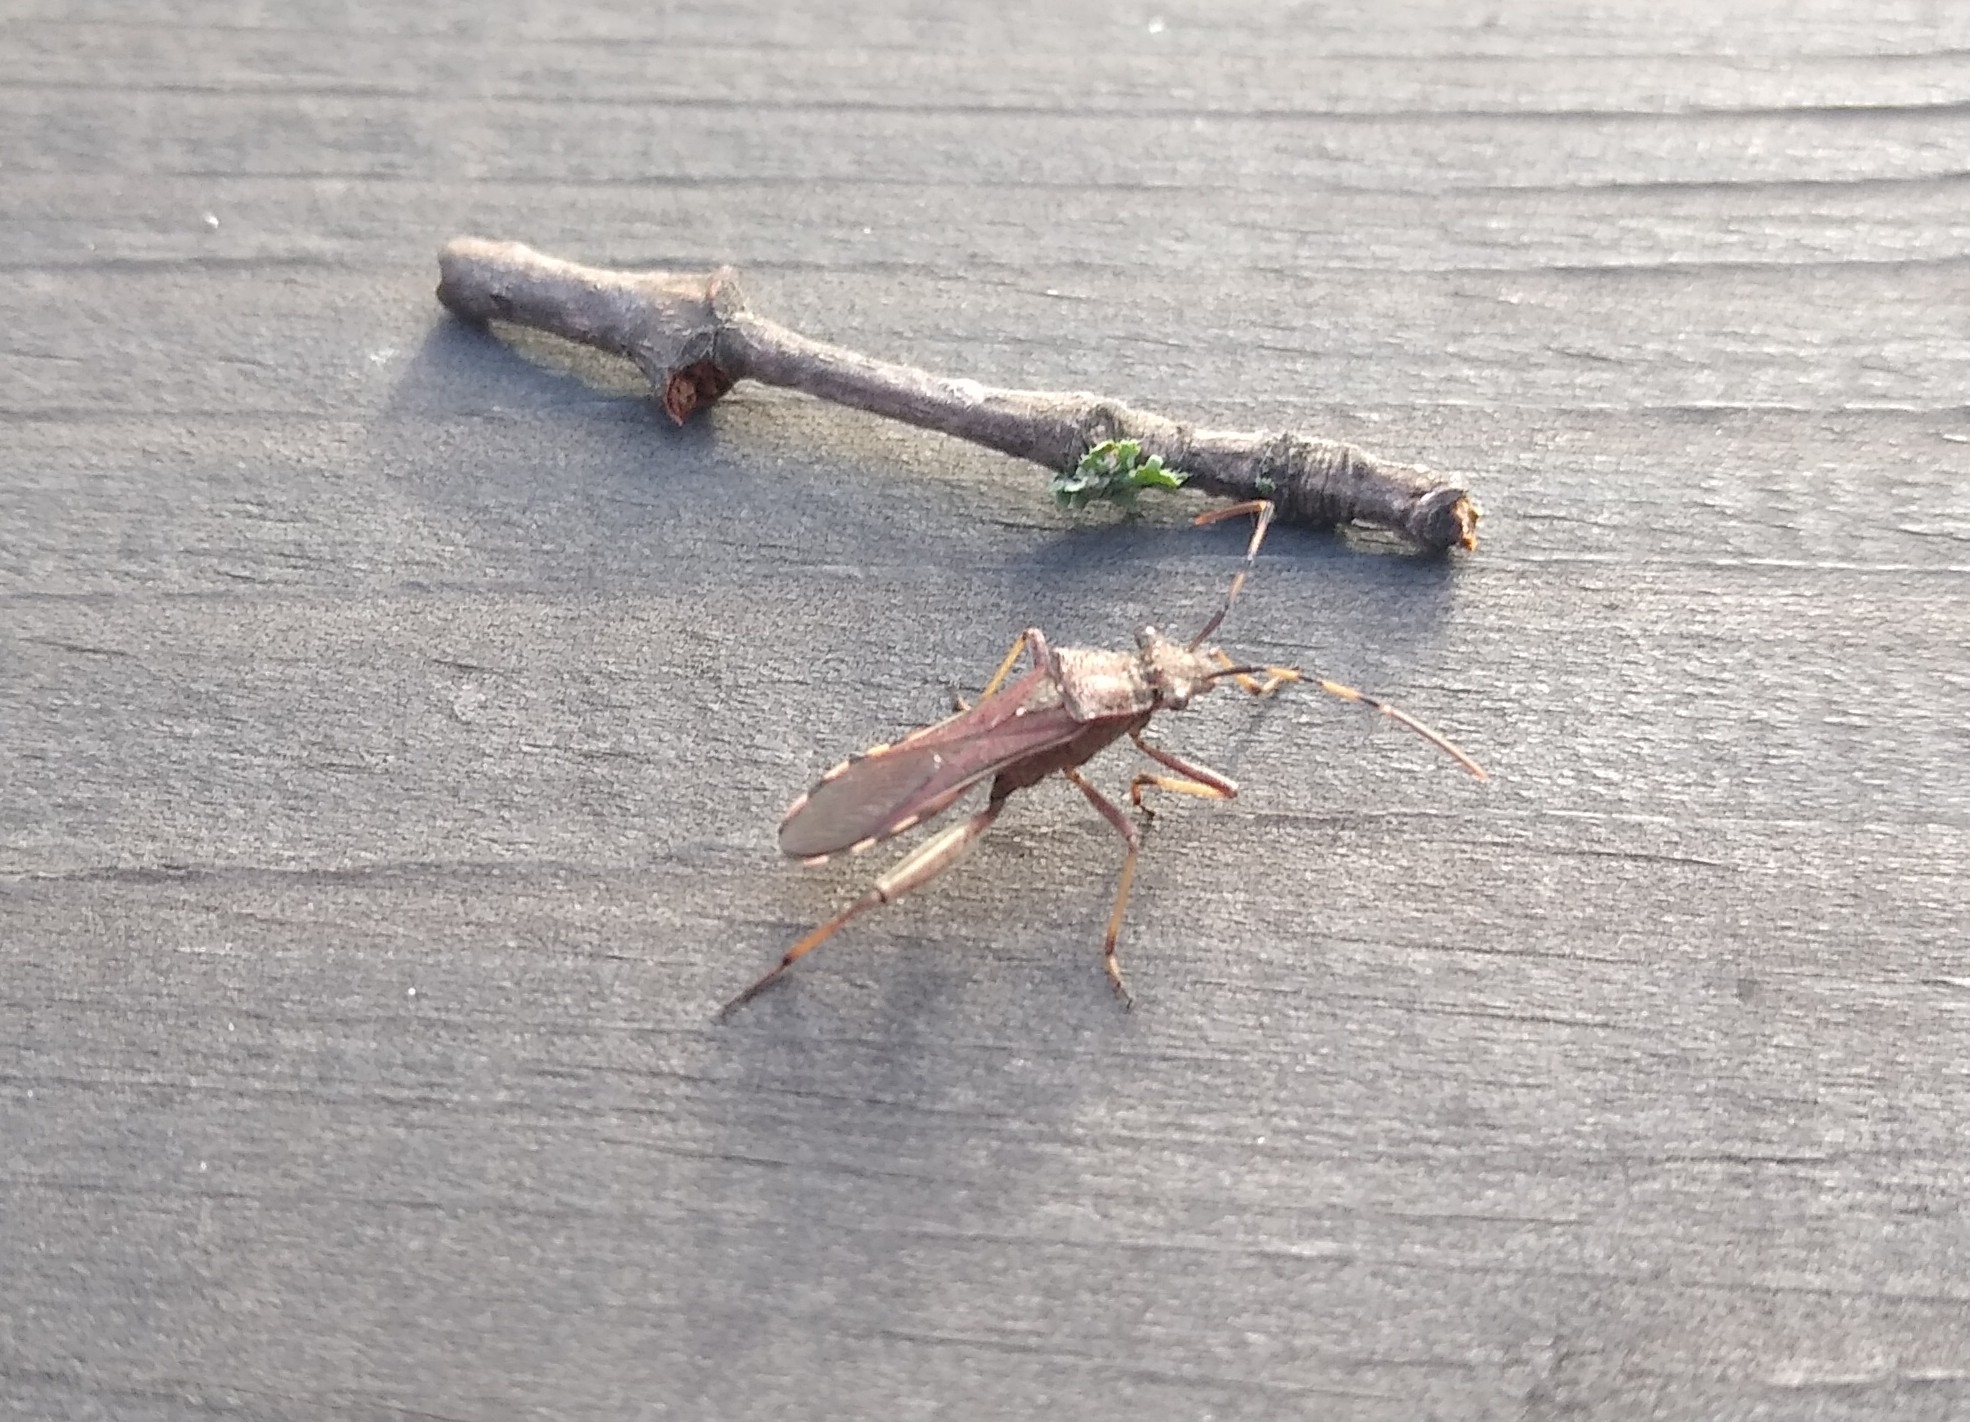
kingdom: Animalia
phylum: Arthropoda
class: Insecta
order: Hemiptera
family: Alydidae
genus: Camptopus
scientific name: Camptopus lateralis
